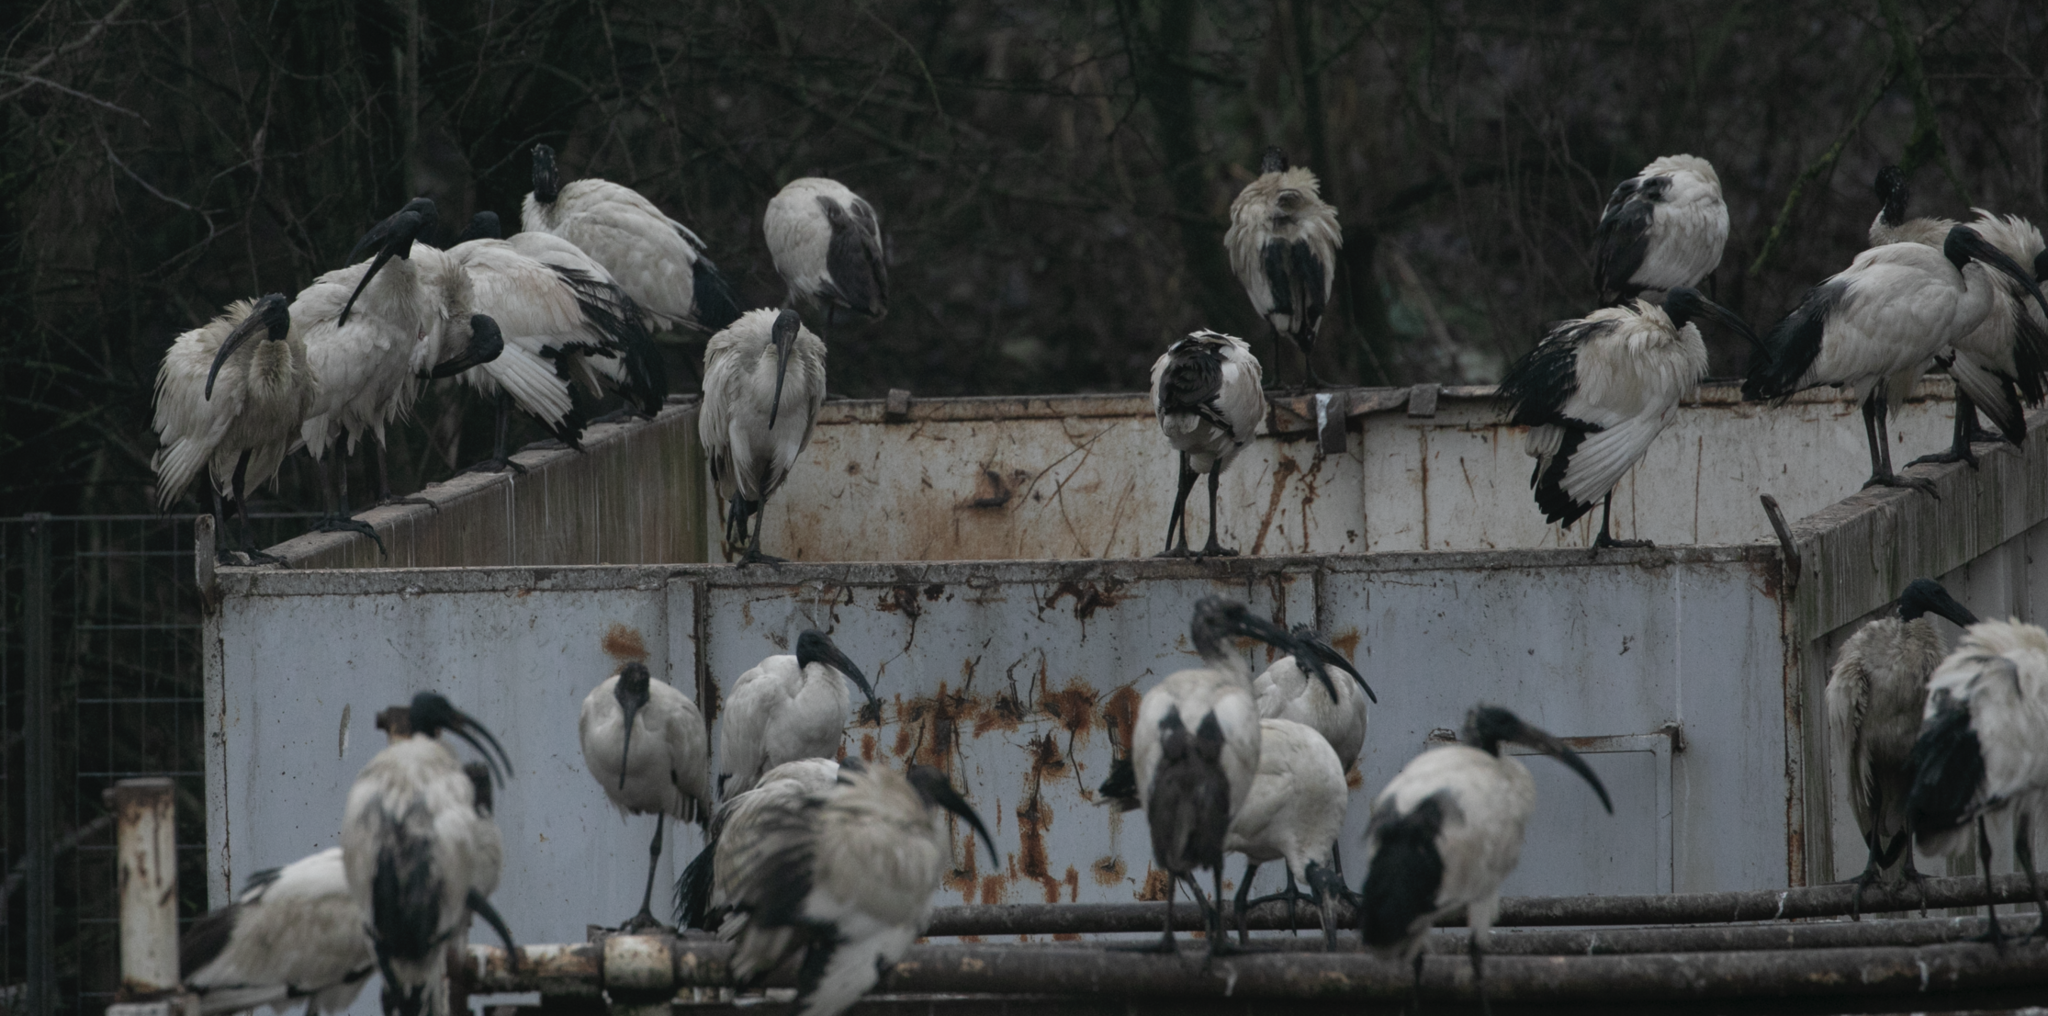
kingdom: Animalia
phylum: Chordata
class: Aves
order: Pelecaniformes
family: Threskiornithidae
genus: Threskiornis
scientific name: Threskiornis aethiopicus
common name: Sacred ibis
